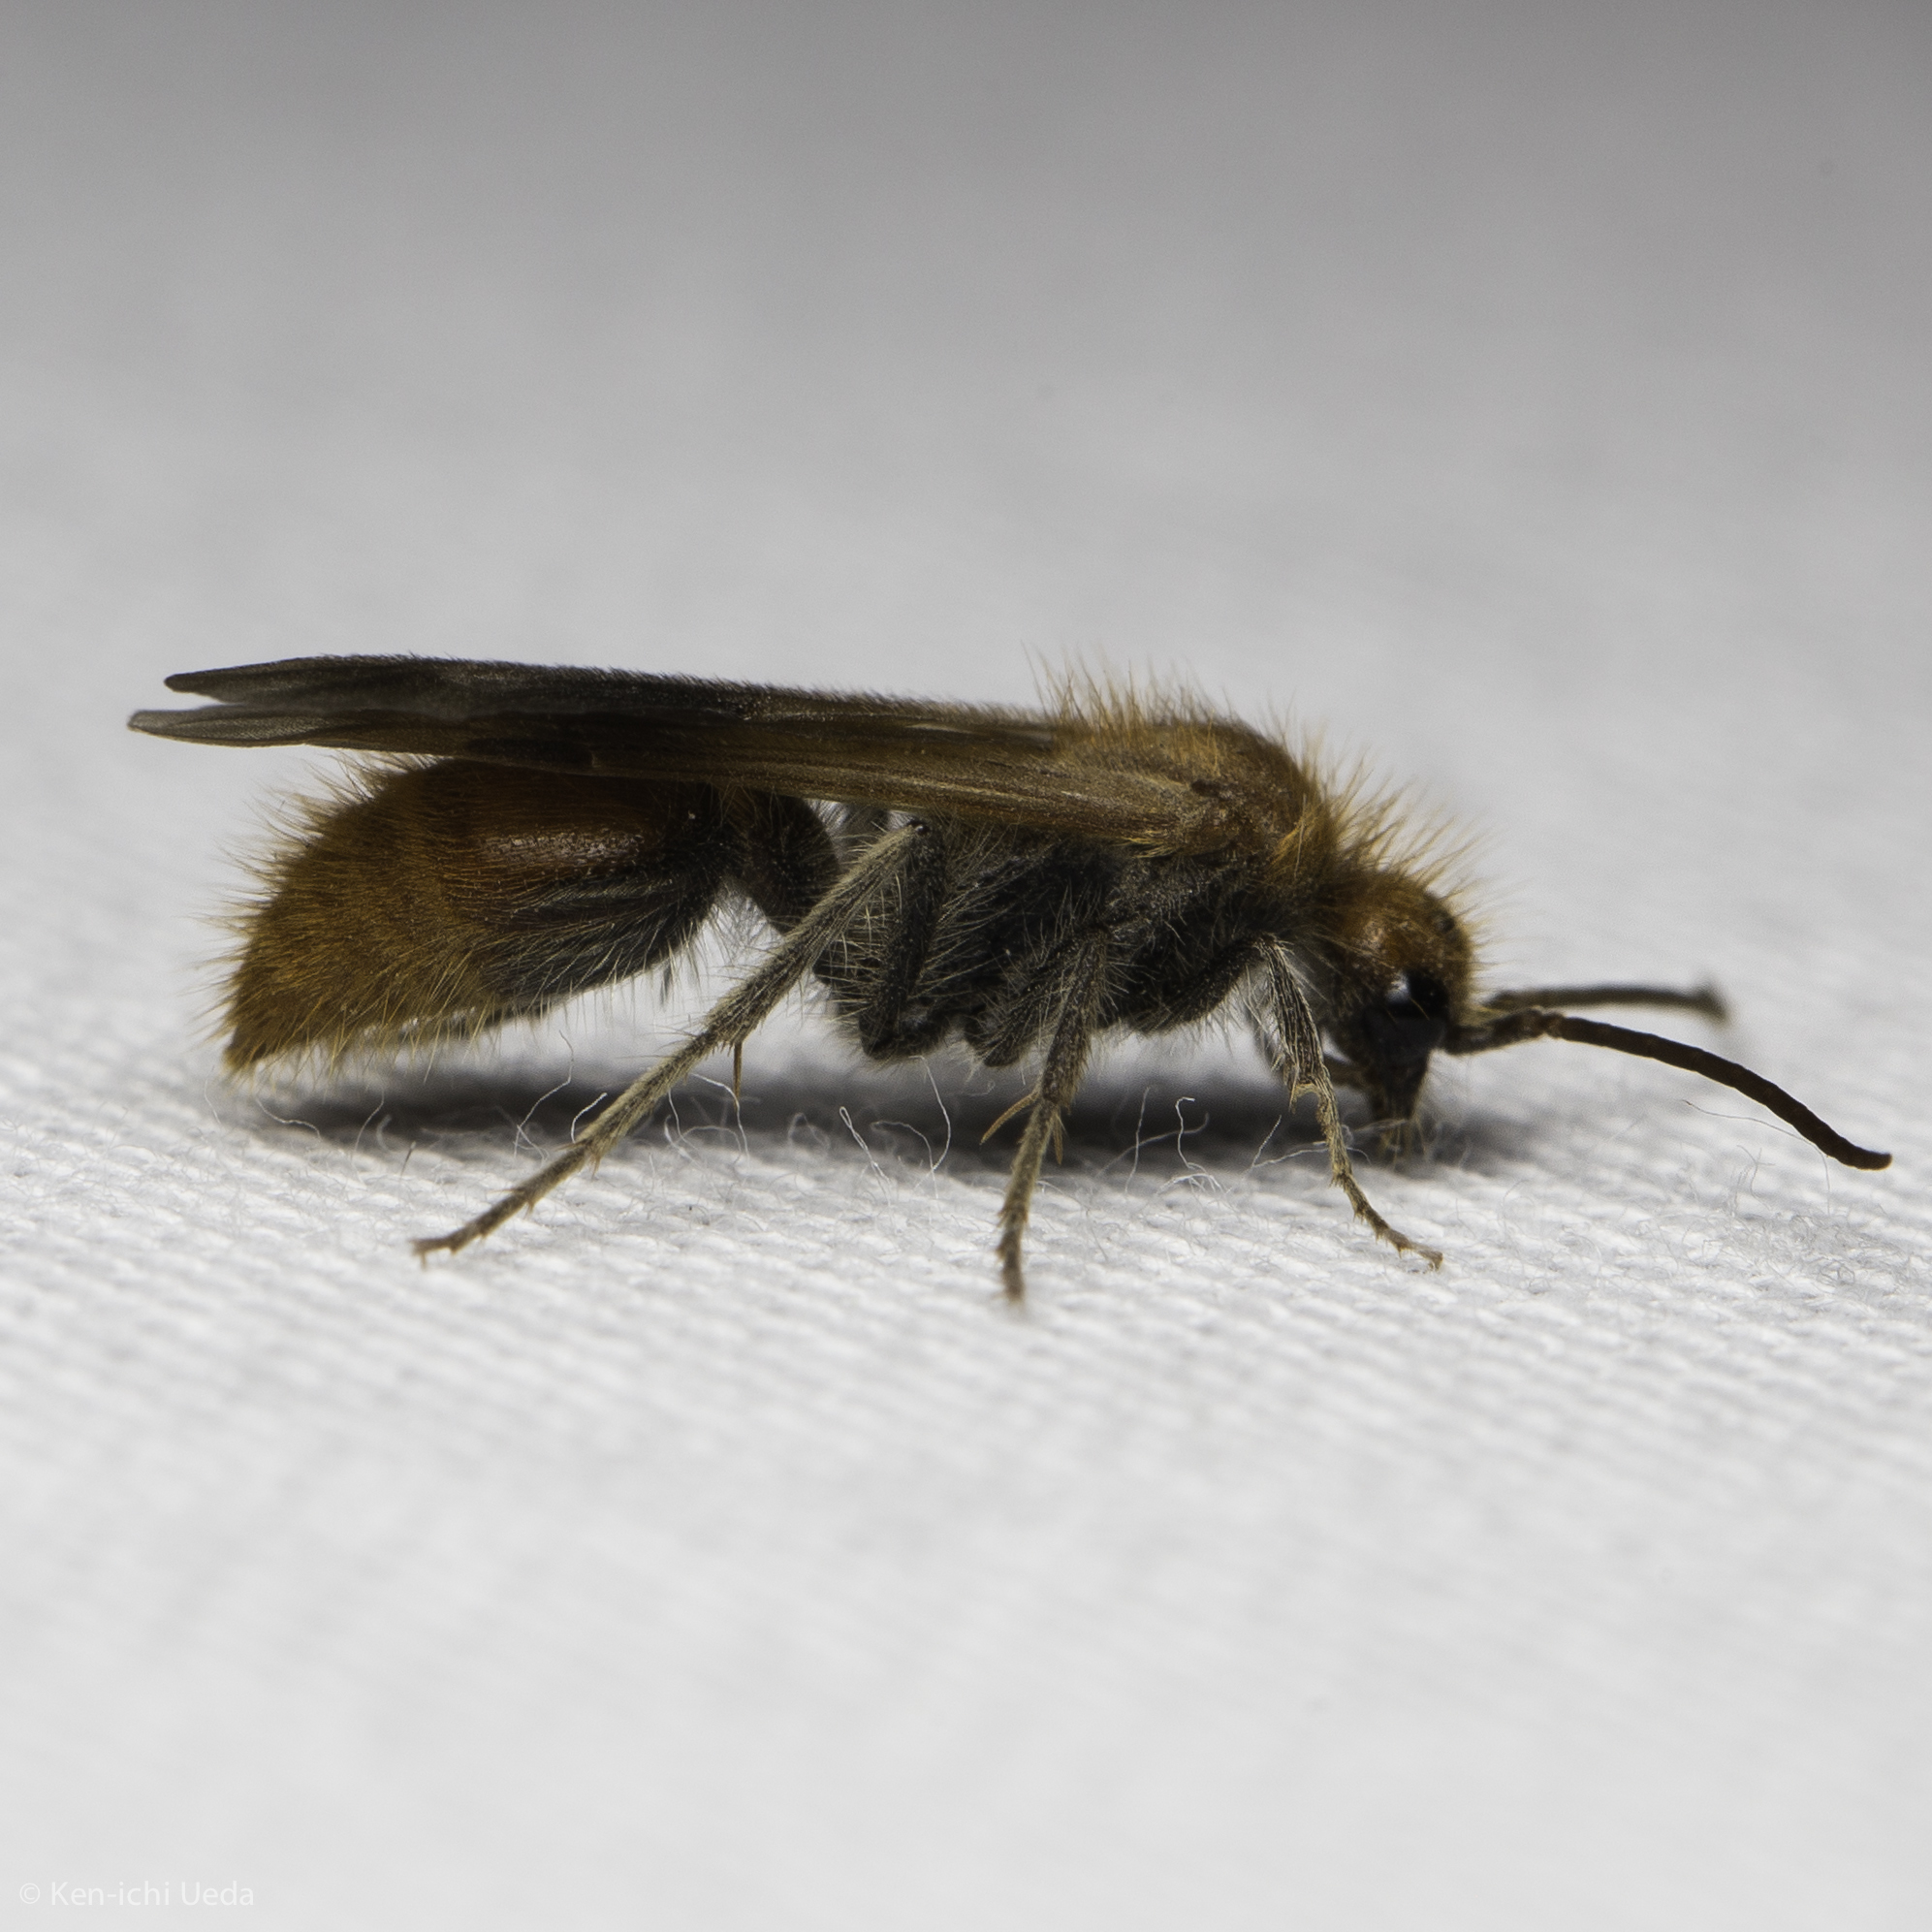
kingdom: Animalia
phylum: Arthropoda
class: Insecta
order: Hymenoptera
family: Mutillidae
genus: Sphaeropthalma
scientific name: Sphaeropthalma unicolor
